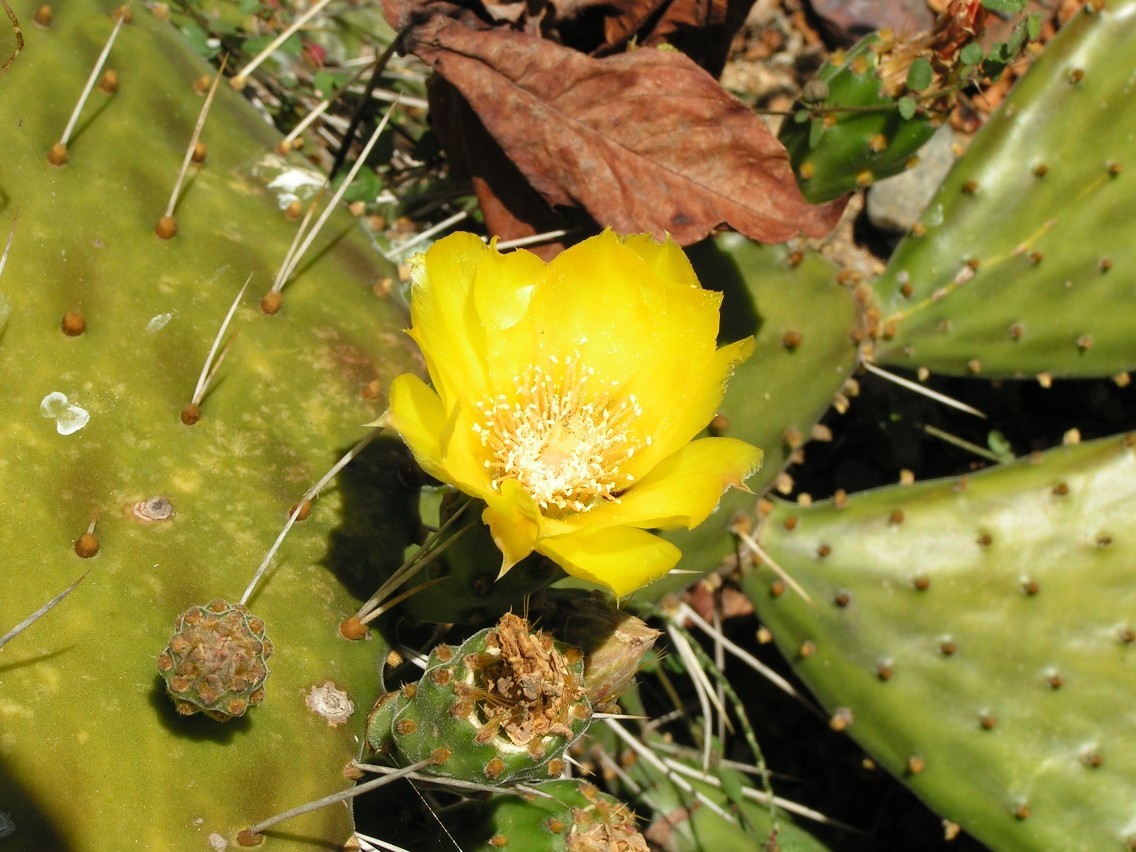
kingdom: Plantae
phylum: Tracheophyta
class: Magnoliopsida
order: Caryophyllales
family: Cactaceae
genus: Opuntia
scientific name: Opuntia decumbens
